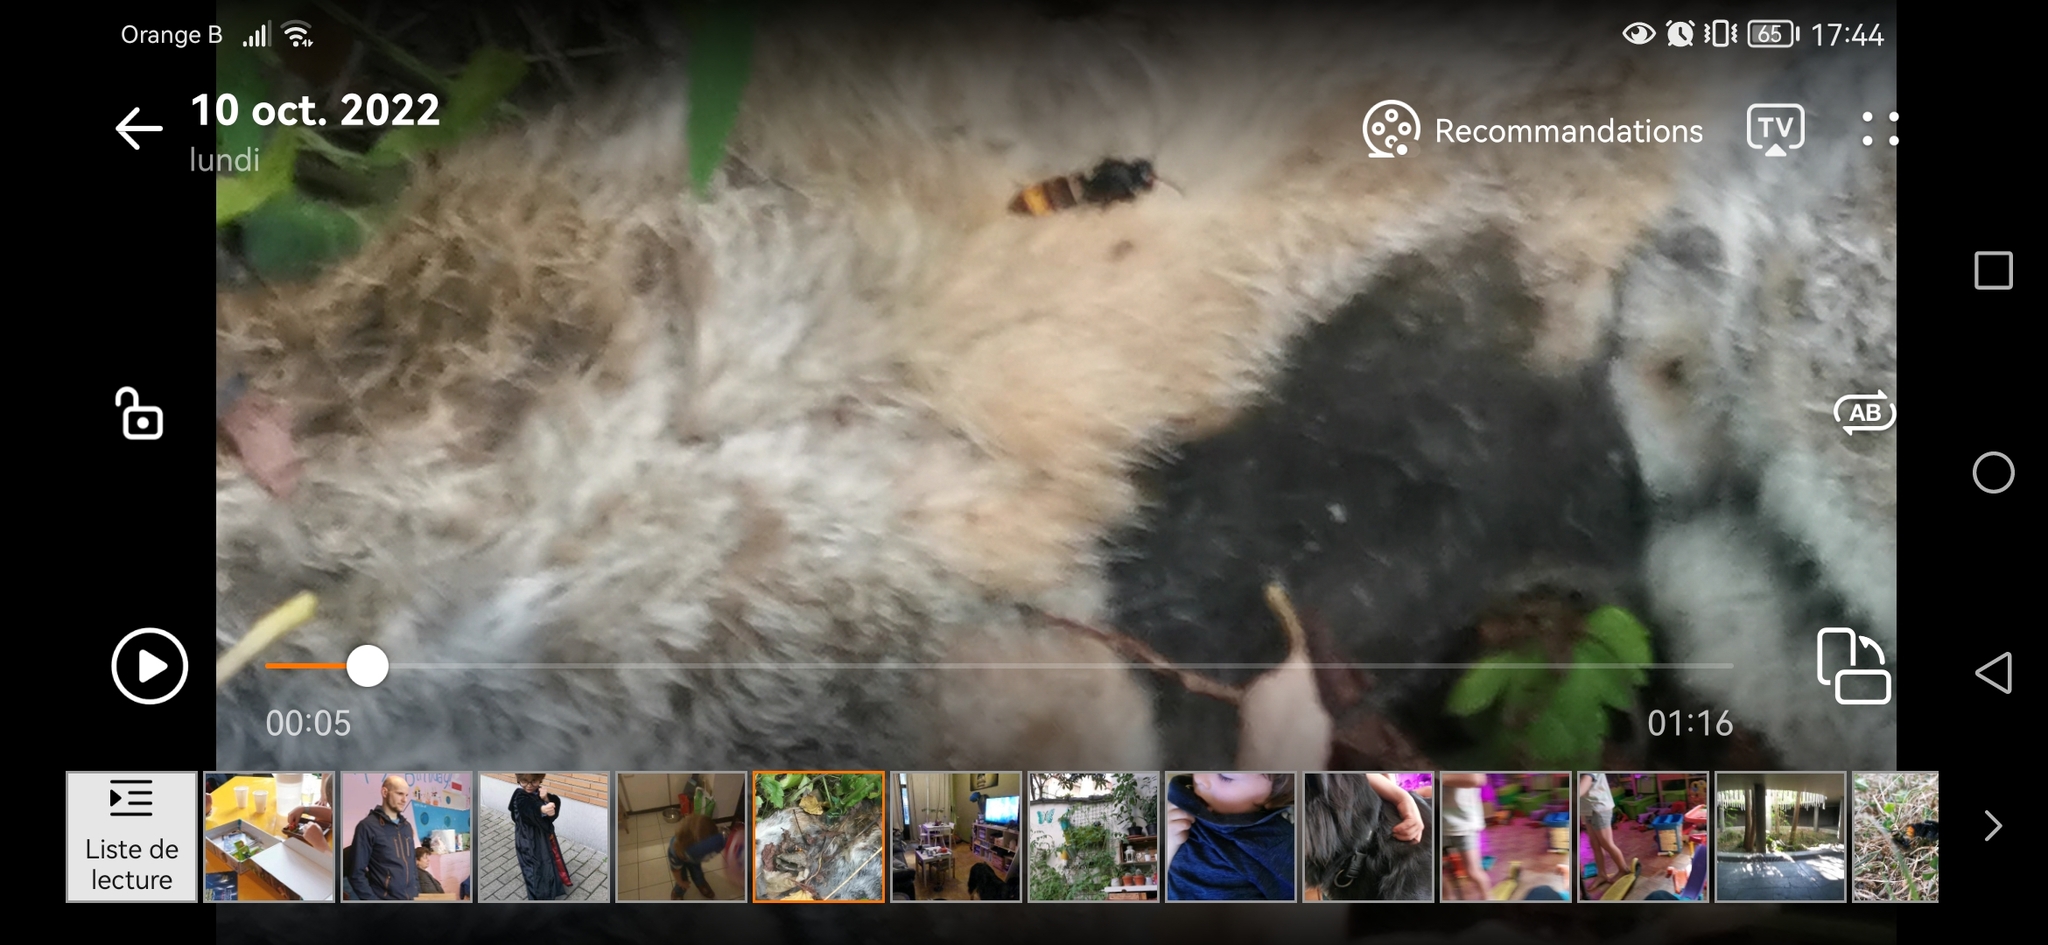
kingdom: Animalia
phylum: Arthropoda
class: Insecta
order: Hymenoptera
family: Vespidae
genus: Vespa
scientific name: Vespa velutina
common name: Asian hornet
